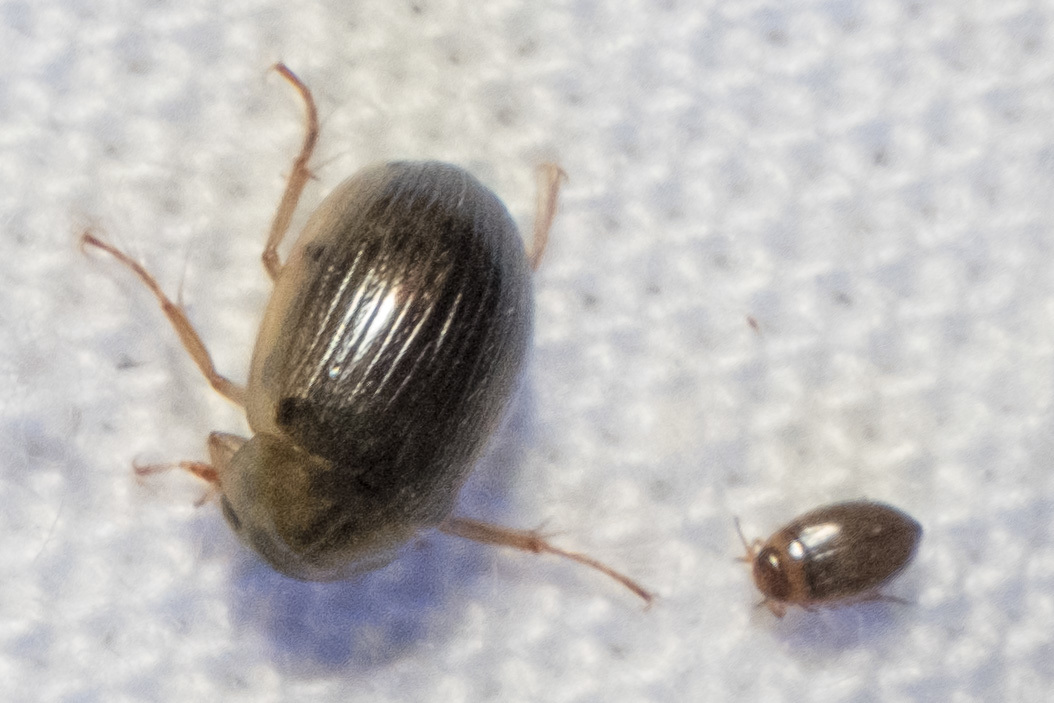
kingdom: Animalia
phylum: Arthropoda
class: Insecta
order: Coleoptera
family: Dytiscidae
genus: Bidessini
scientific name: Bidessini
